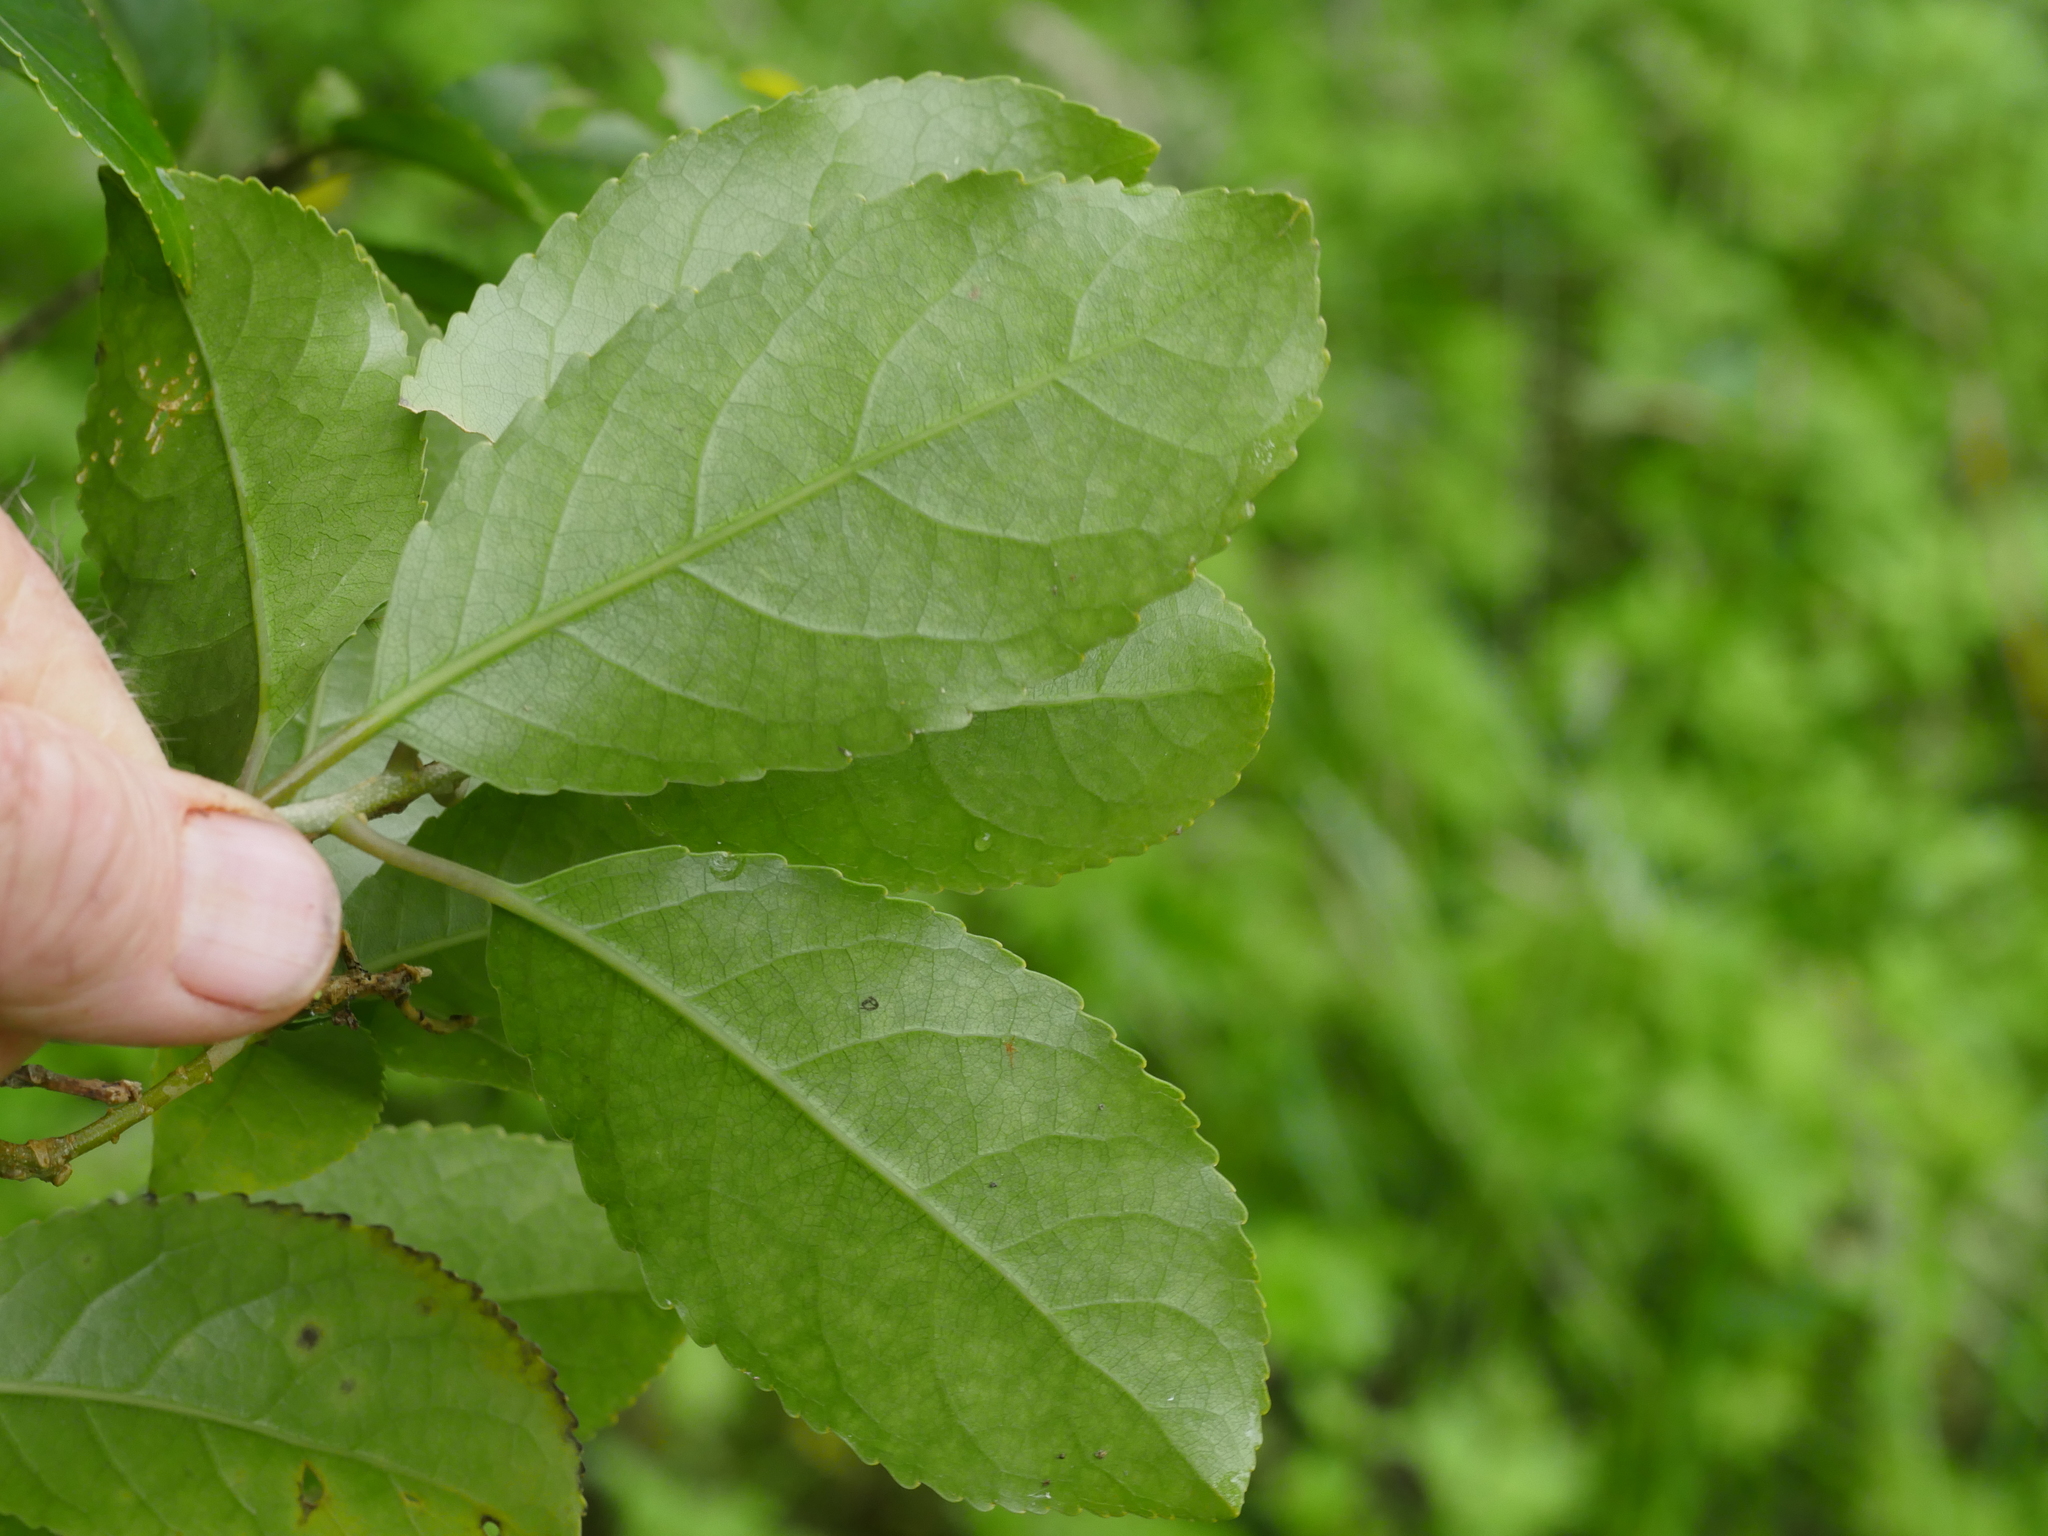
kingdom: Plantae
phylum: Tracheophyta
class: Magnoliopsida
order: Malpighiales
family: Violaceae
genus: Melicytus
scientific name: Melicytus ramiflorus
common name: Mahoe
